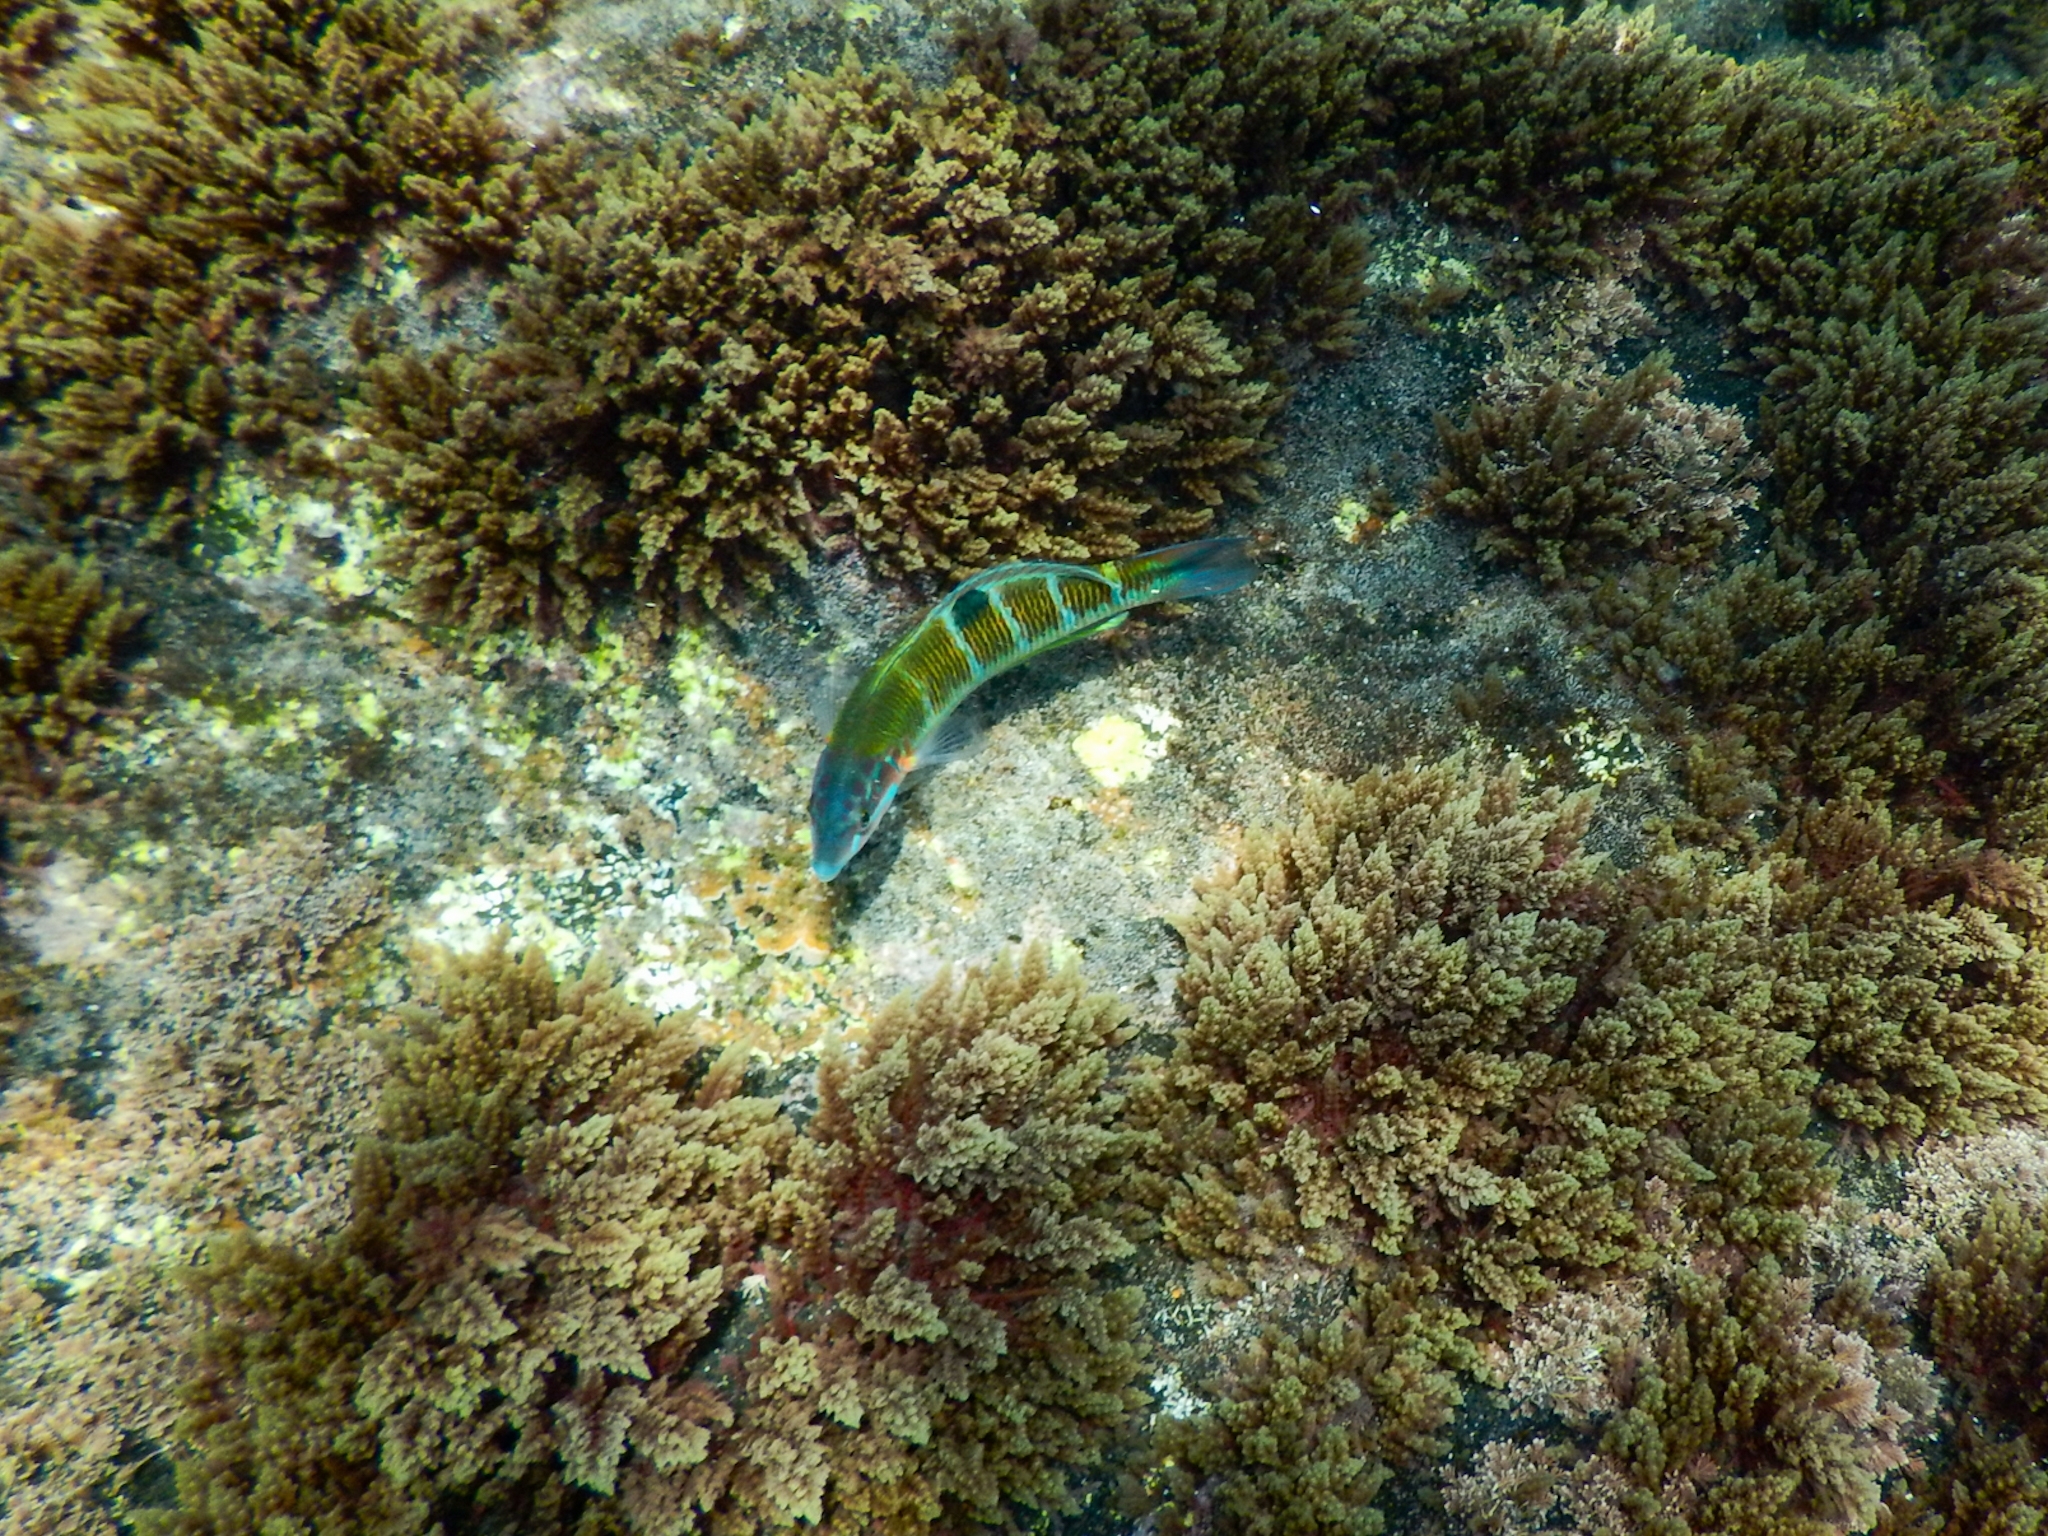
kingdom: Animalia
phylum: Chordata
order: Perciformes
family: Labridae
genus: Thalassoma
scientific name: Thalassoma pavo
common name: Ornate wrasse
